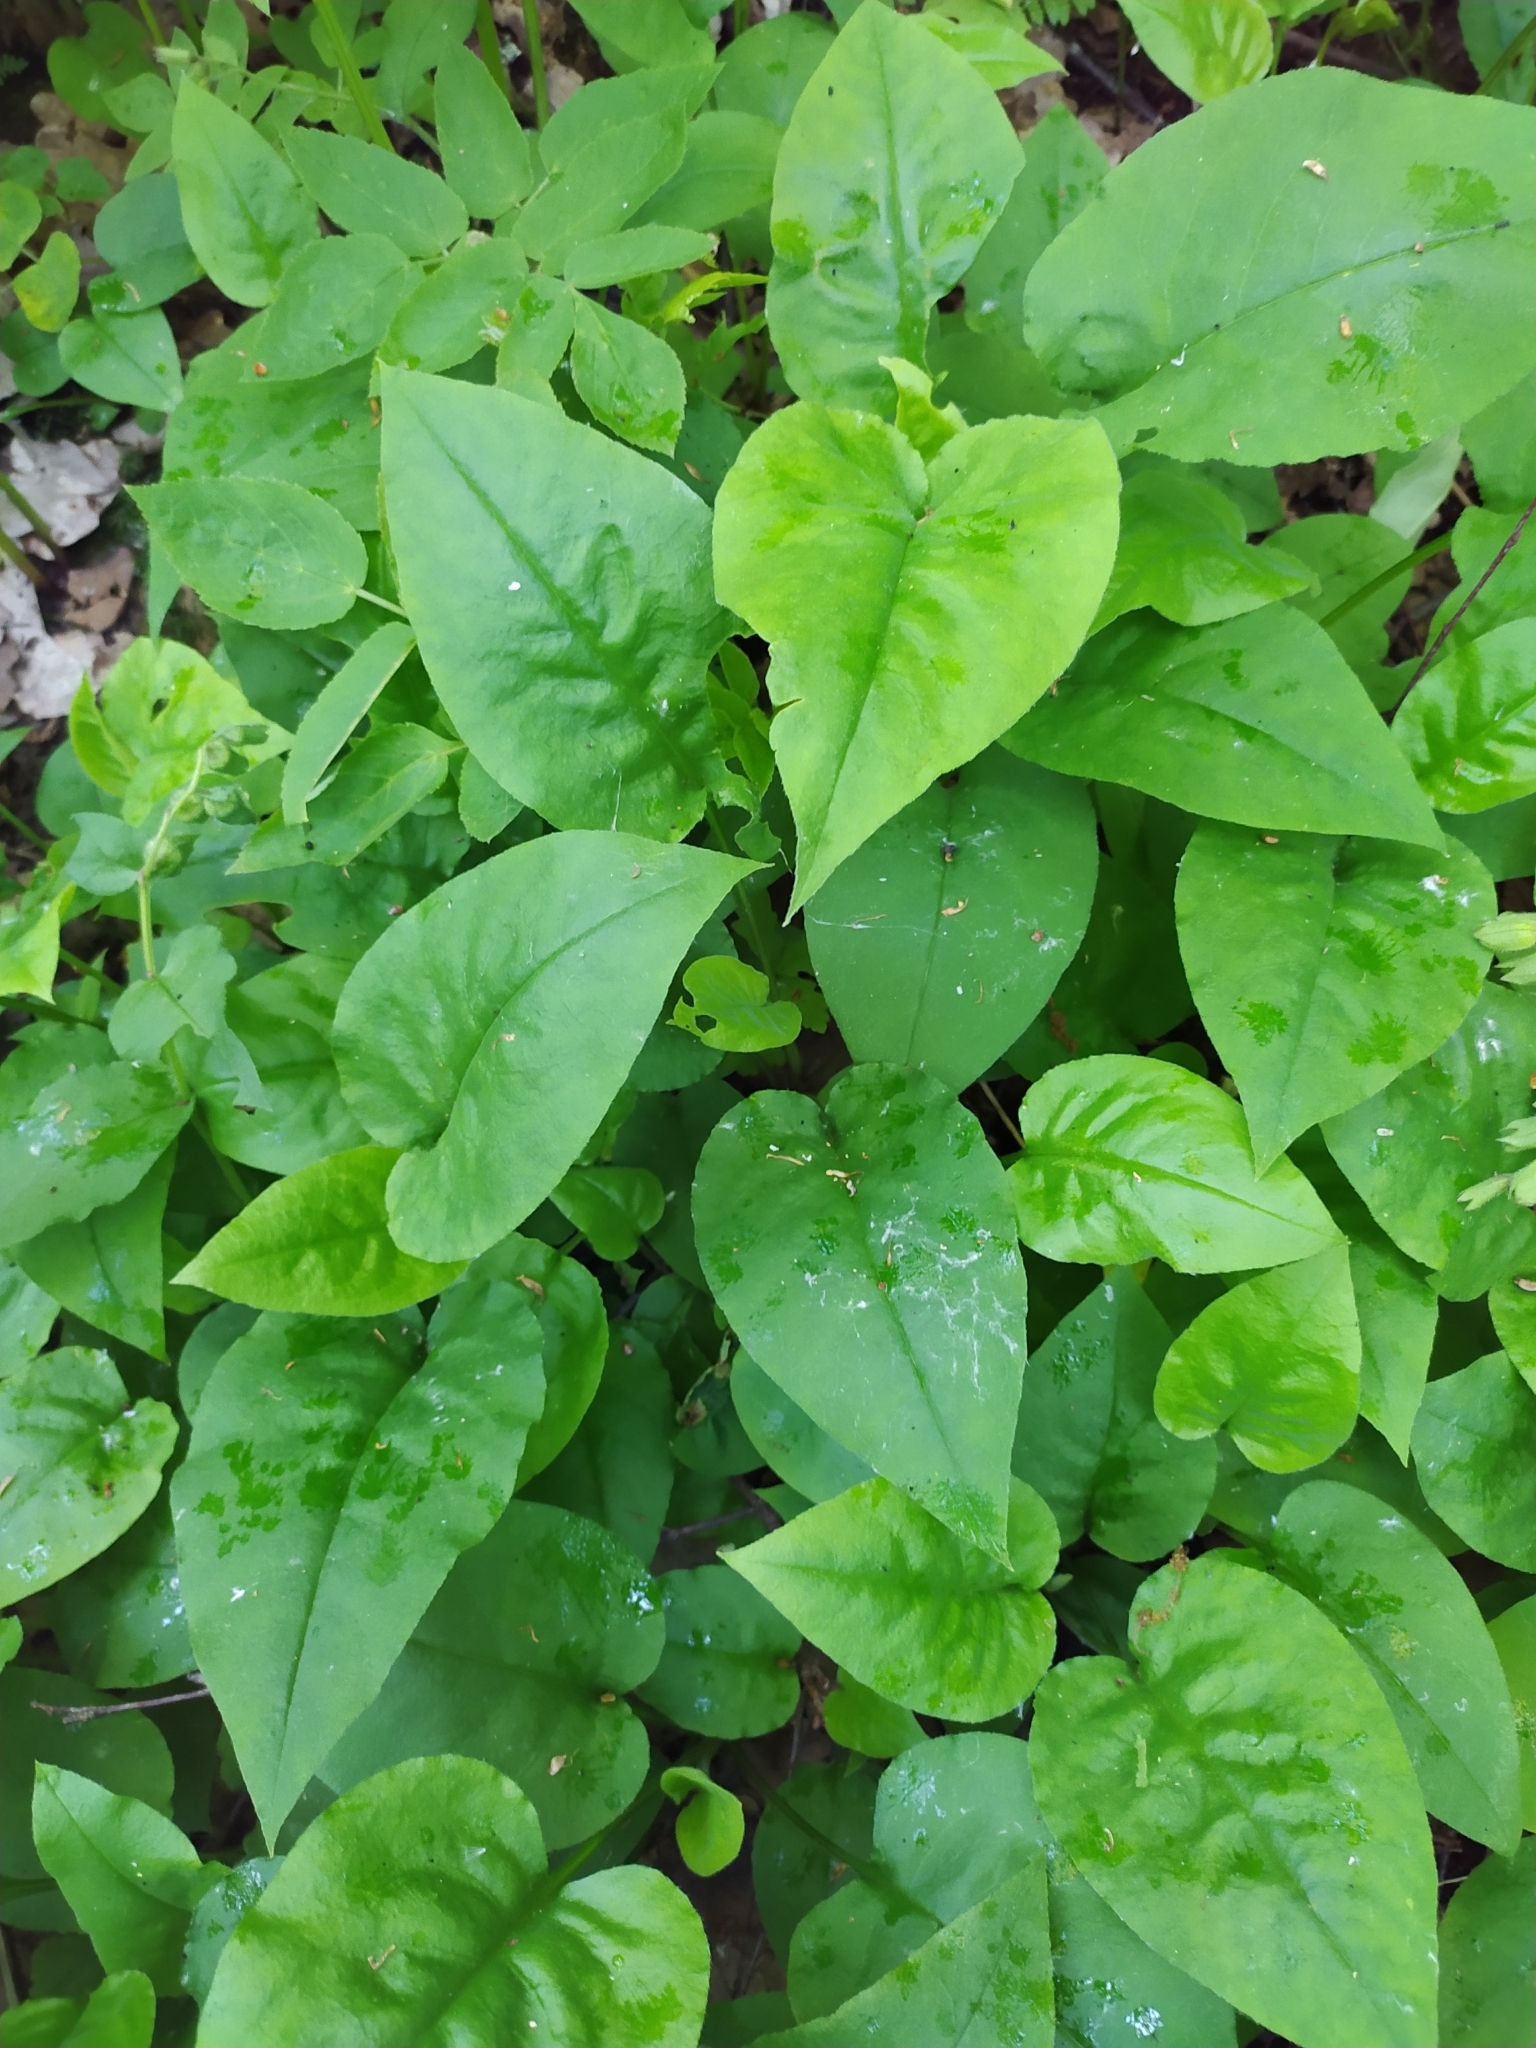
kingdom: Plantae
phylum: Tracheophyta
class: Magnoliopsida
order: Boraginales
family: Boraginaceae
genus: Pulmonaria
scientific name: Pulmonaria obscura
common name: Suffolk lungwort
